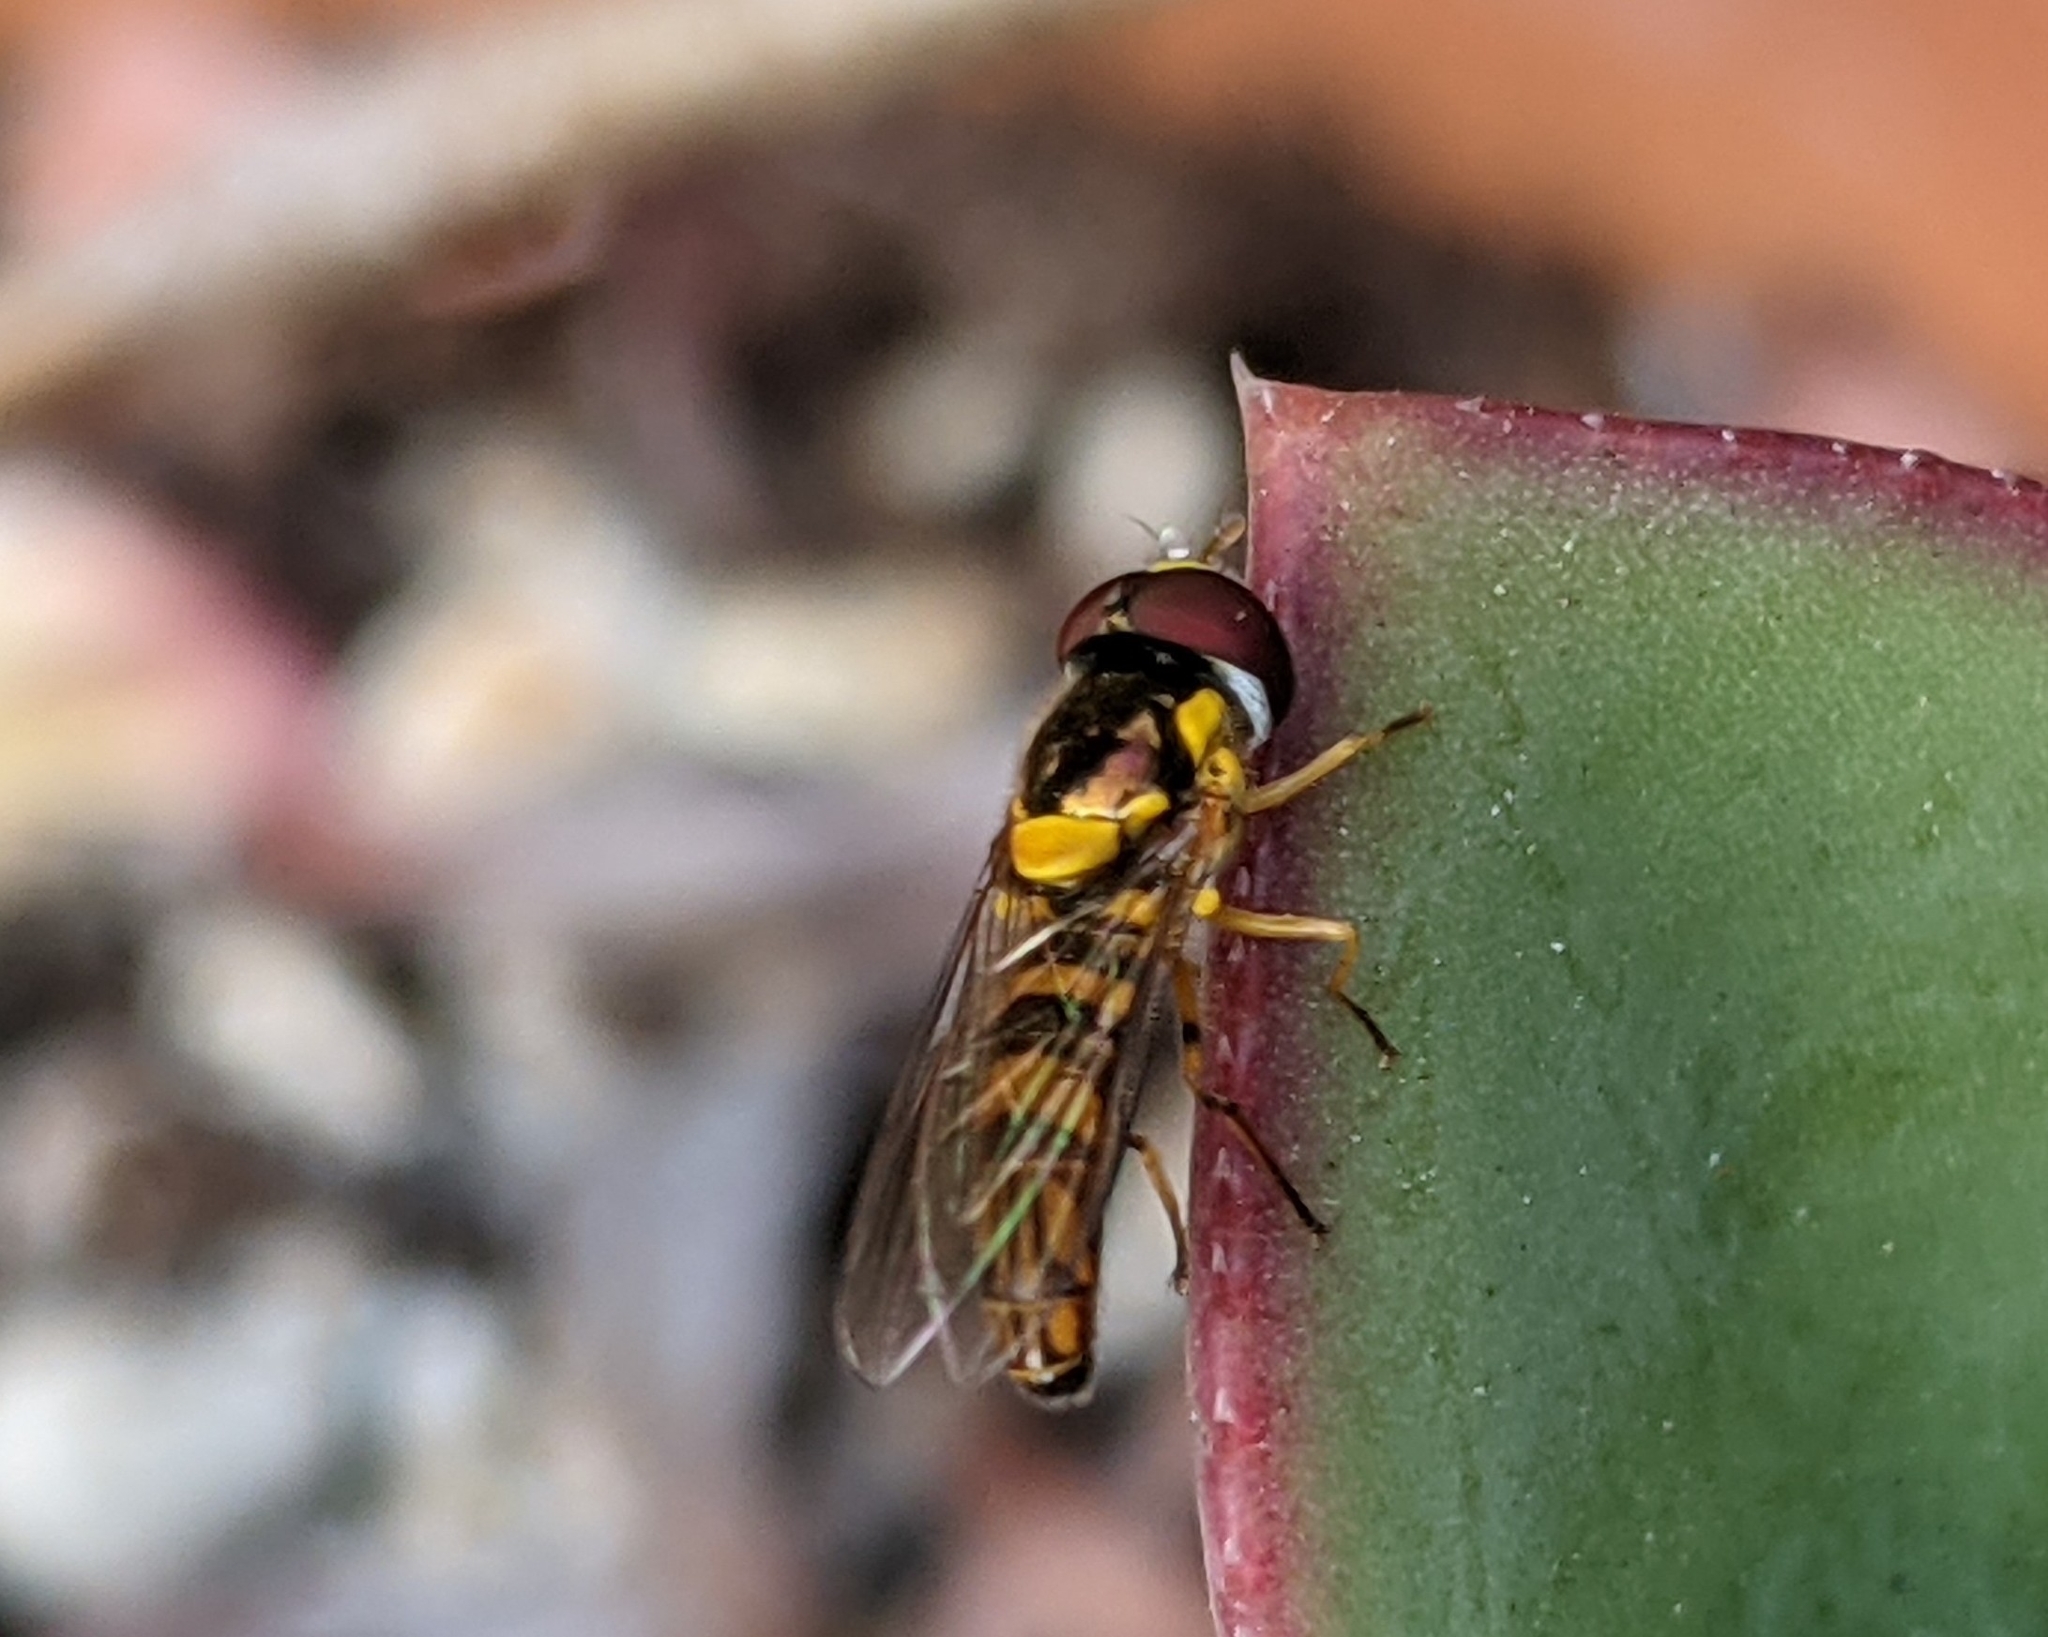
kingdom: Animalia
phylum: Arthropoda
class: Insecta
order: Diptera
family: Syrphidae
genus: Allograpta
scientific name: Allograpta obliqua
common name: Common oblique syrphid
